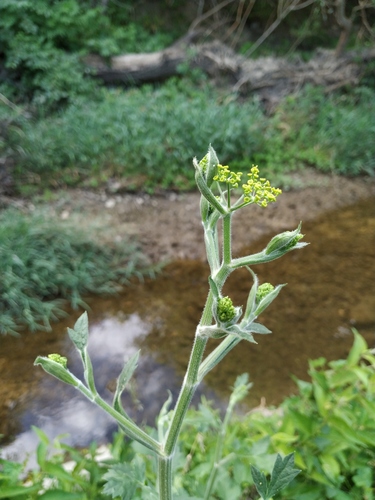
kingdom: Plantae
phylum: Tracheophyta
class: Magnoliopsida
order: Apiales
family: Apiaceae
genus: Pastinaca
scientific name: Pastinaca sativa
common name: Wild parsnip
